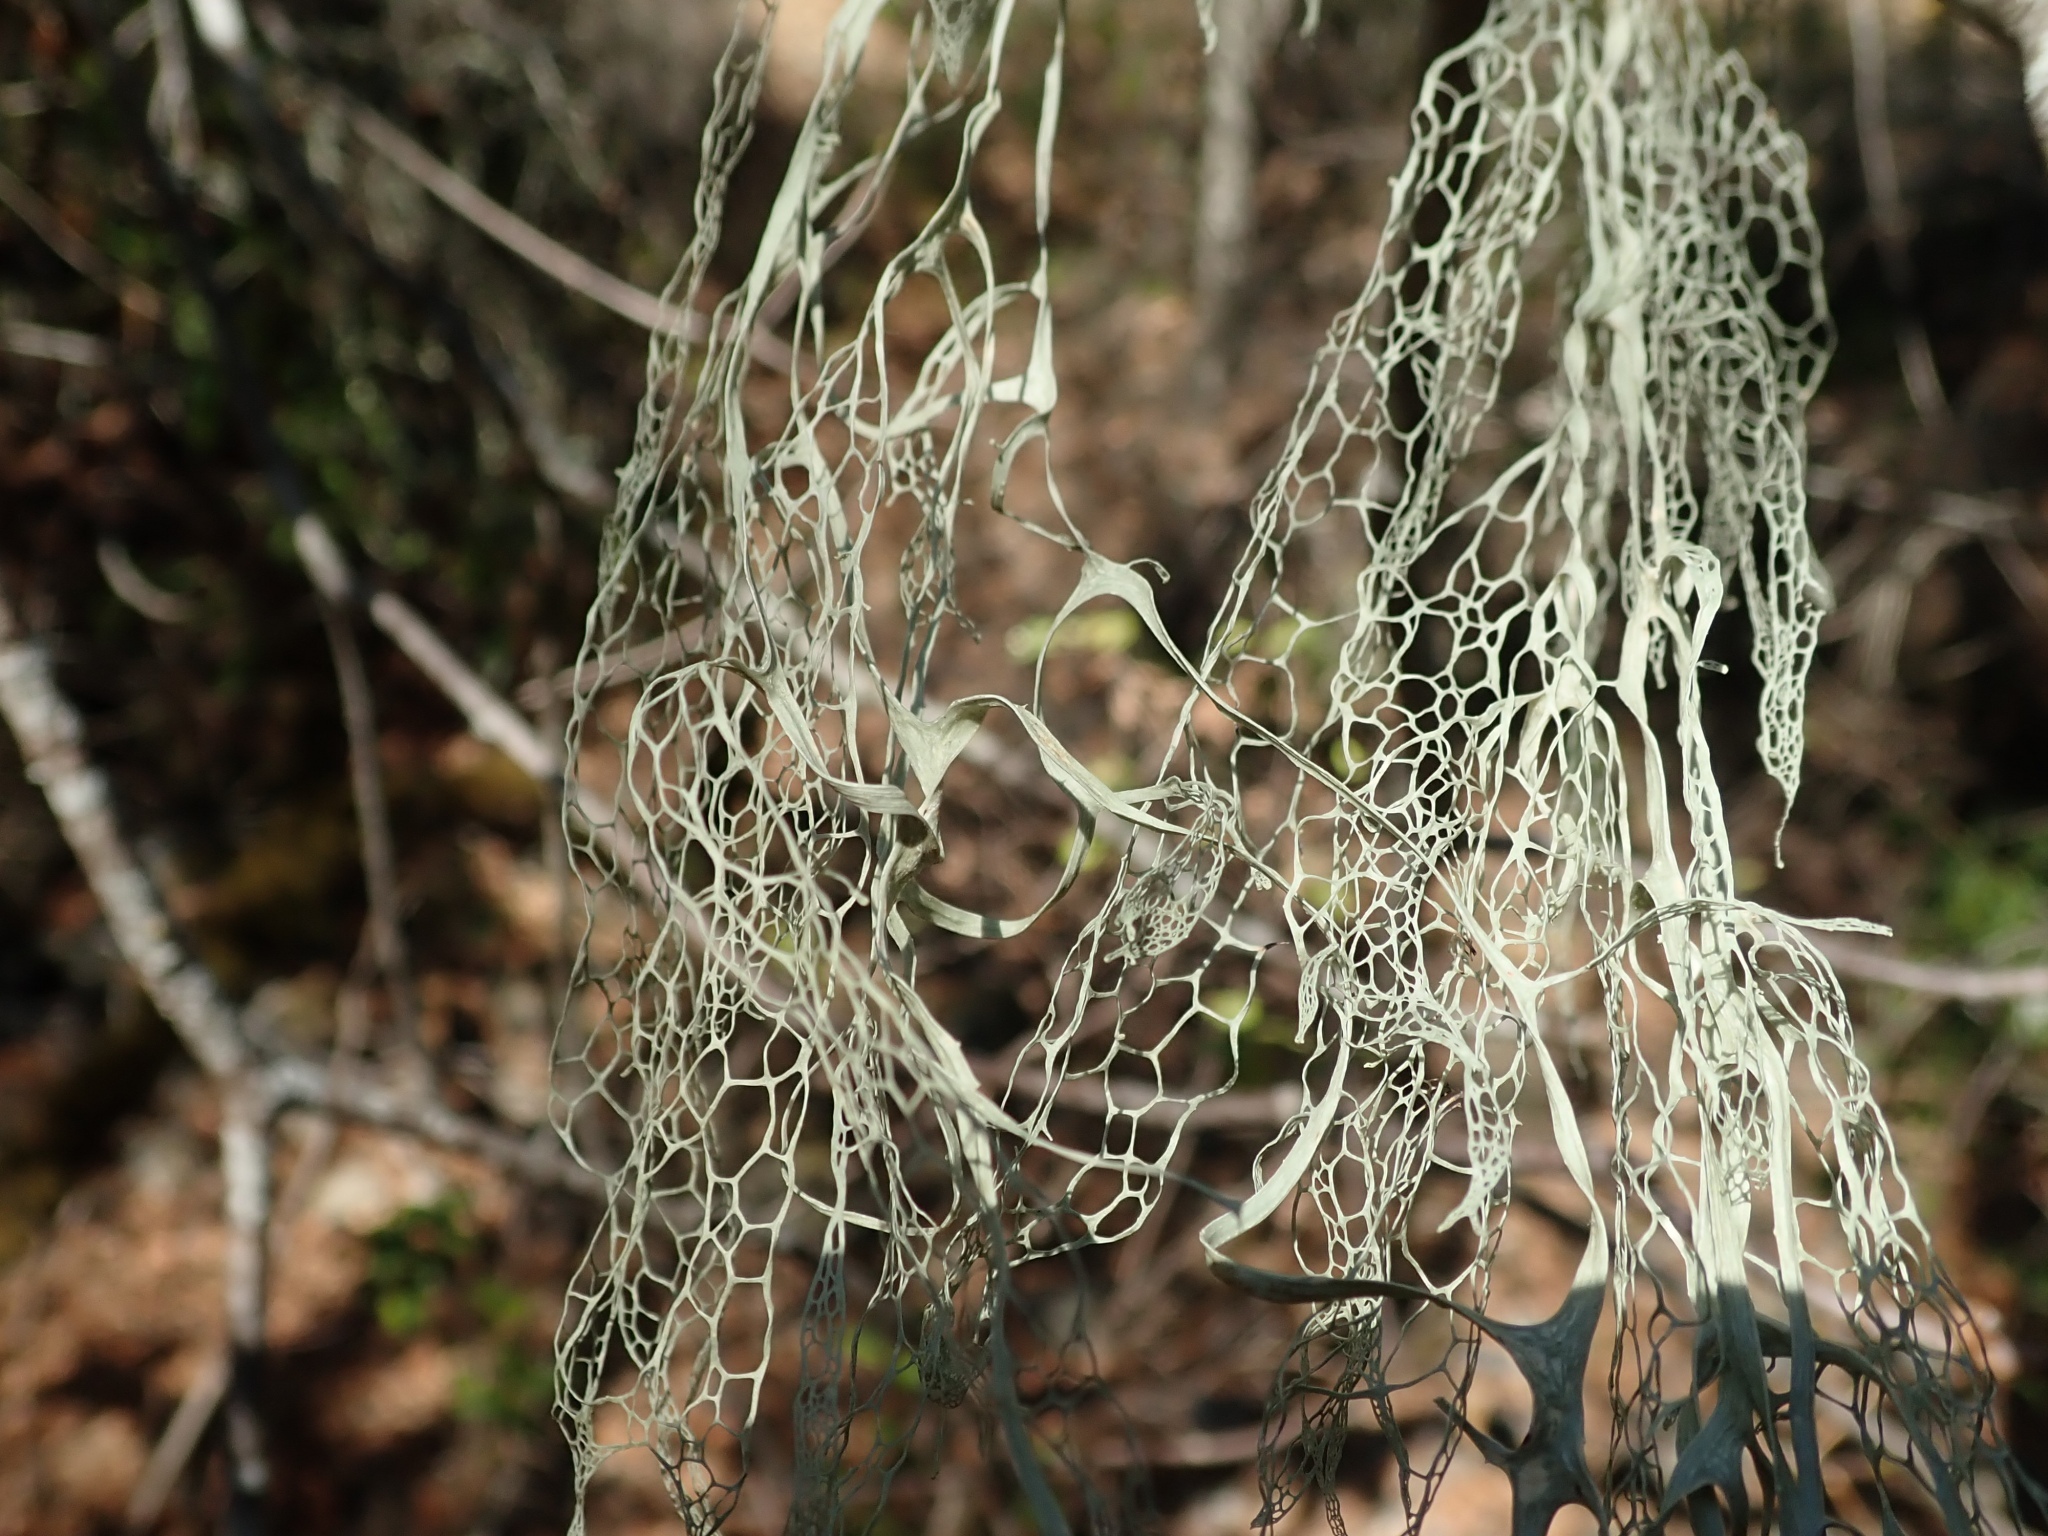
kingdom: Fungi
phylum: Ascomycota
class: Lecanoromycetes
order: Lecanorales
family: Ramalinaceae
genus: Ramalina
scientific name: Ramalina menziesii
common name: Lace lichen
